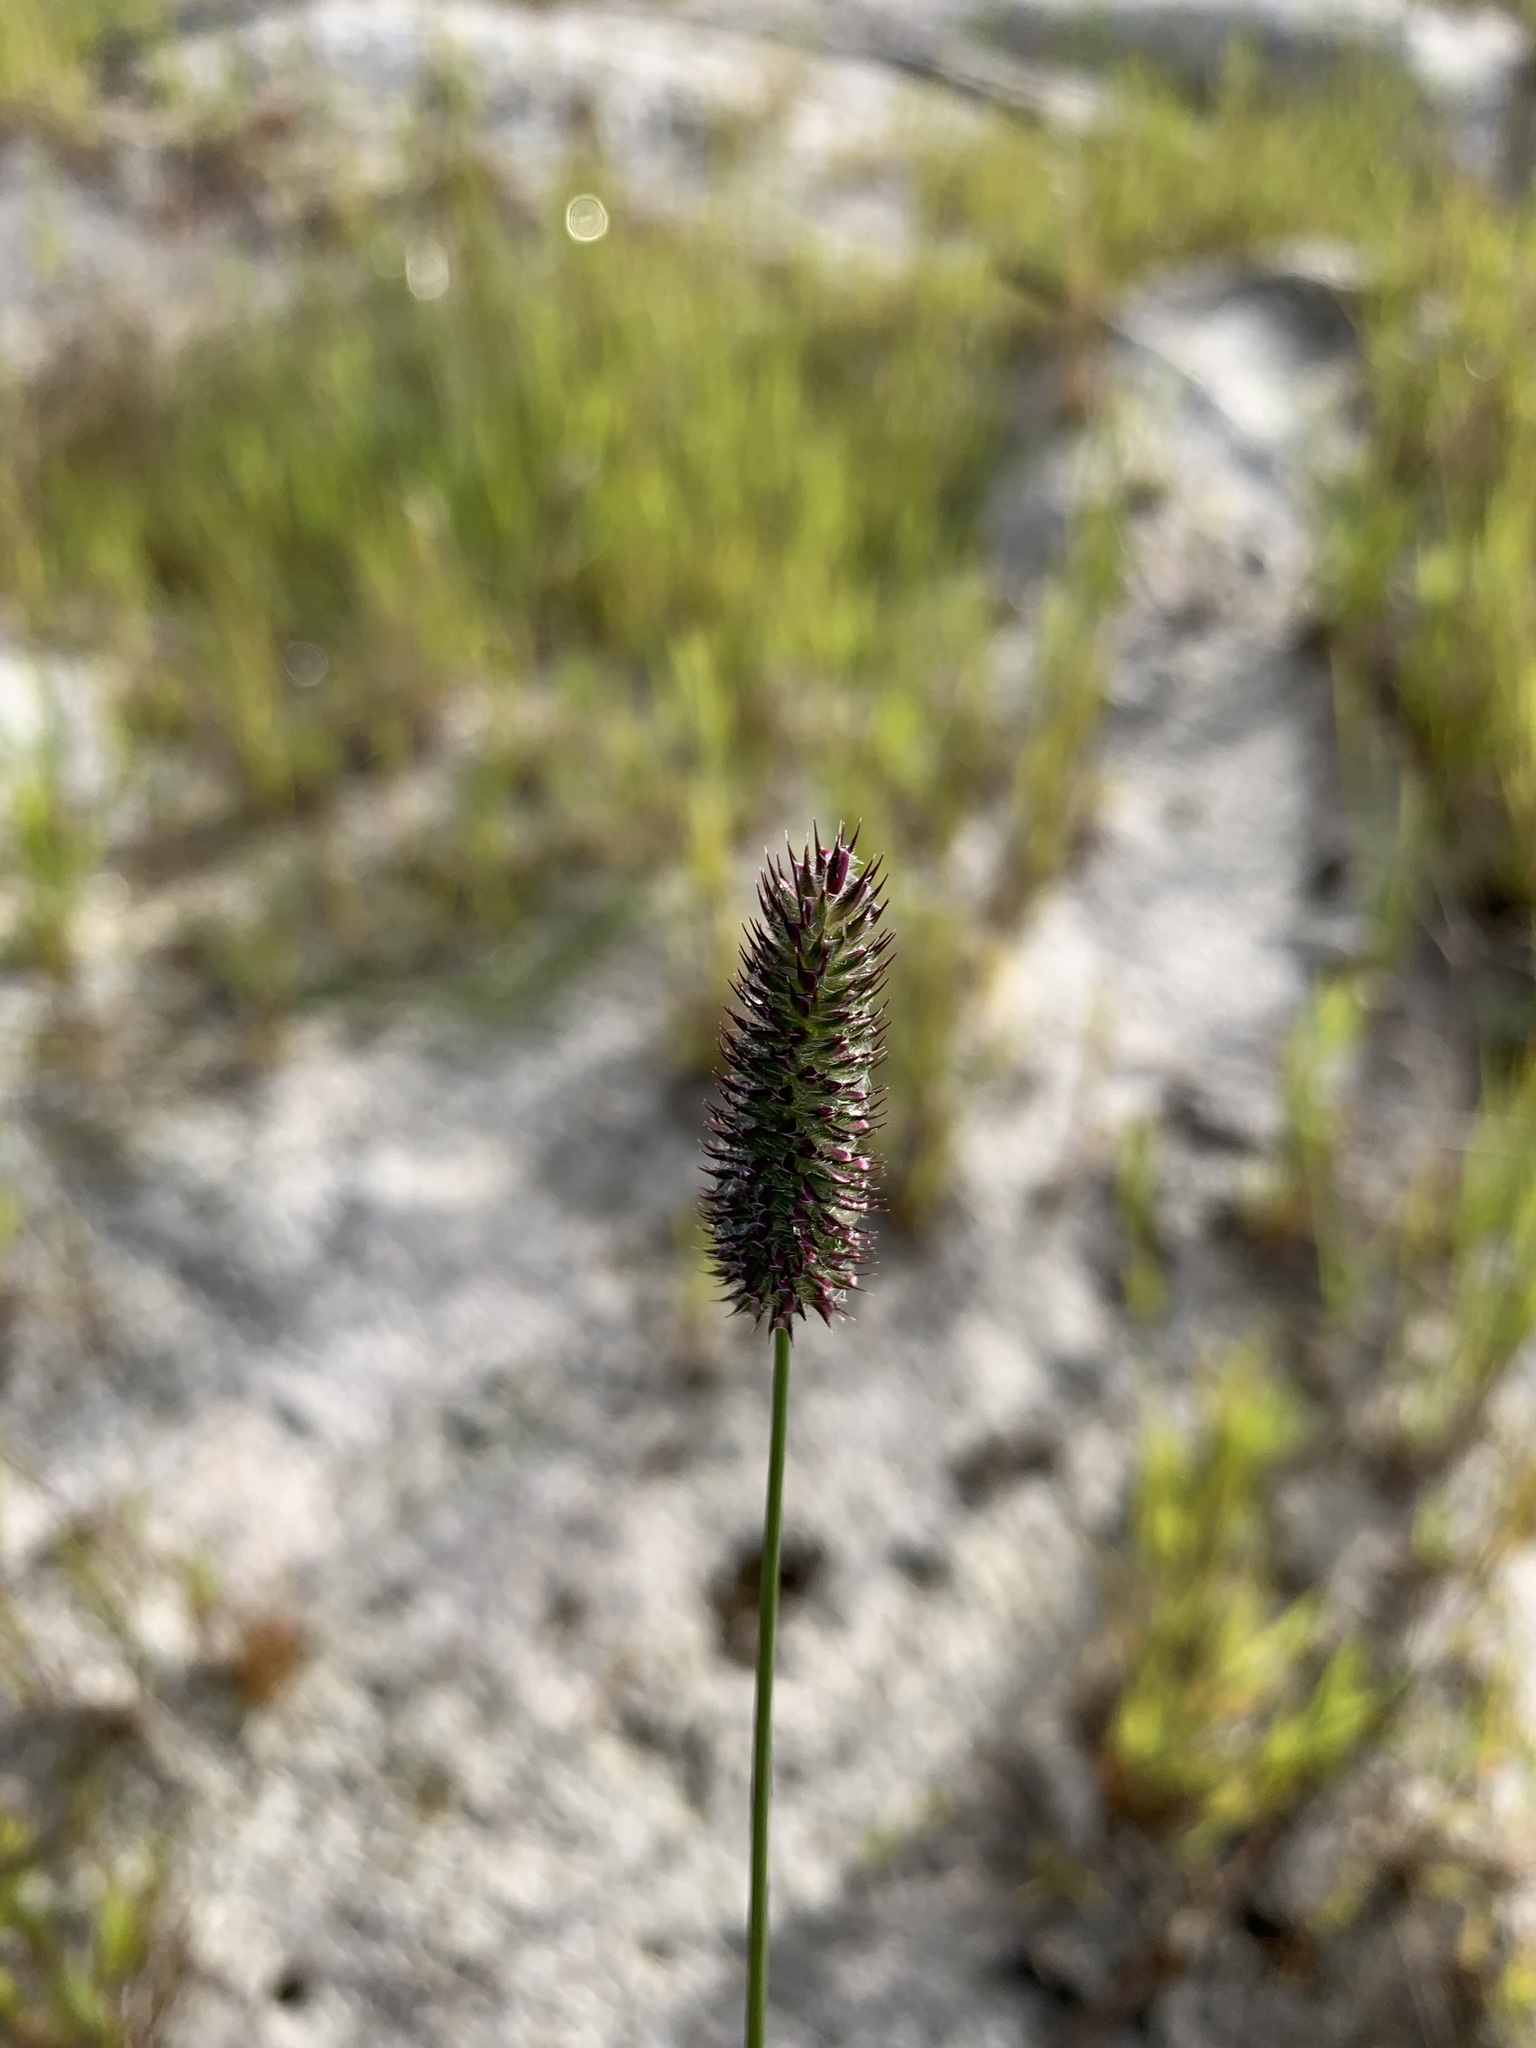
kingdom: Plantae
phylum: Tracheophyta
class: Liliopsida
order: Poales
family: Poaceae
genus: Phleum
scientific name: Phleum alpinum
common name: Alpine cat's-tail
